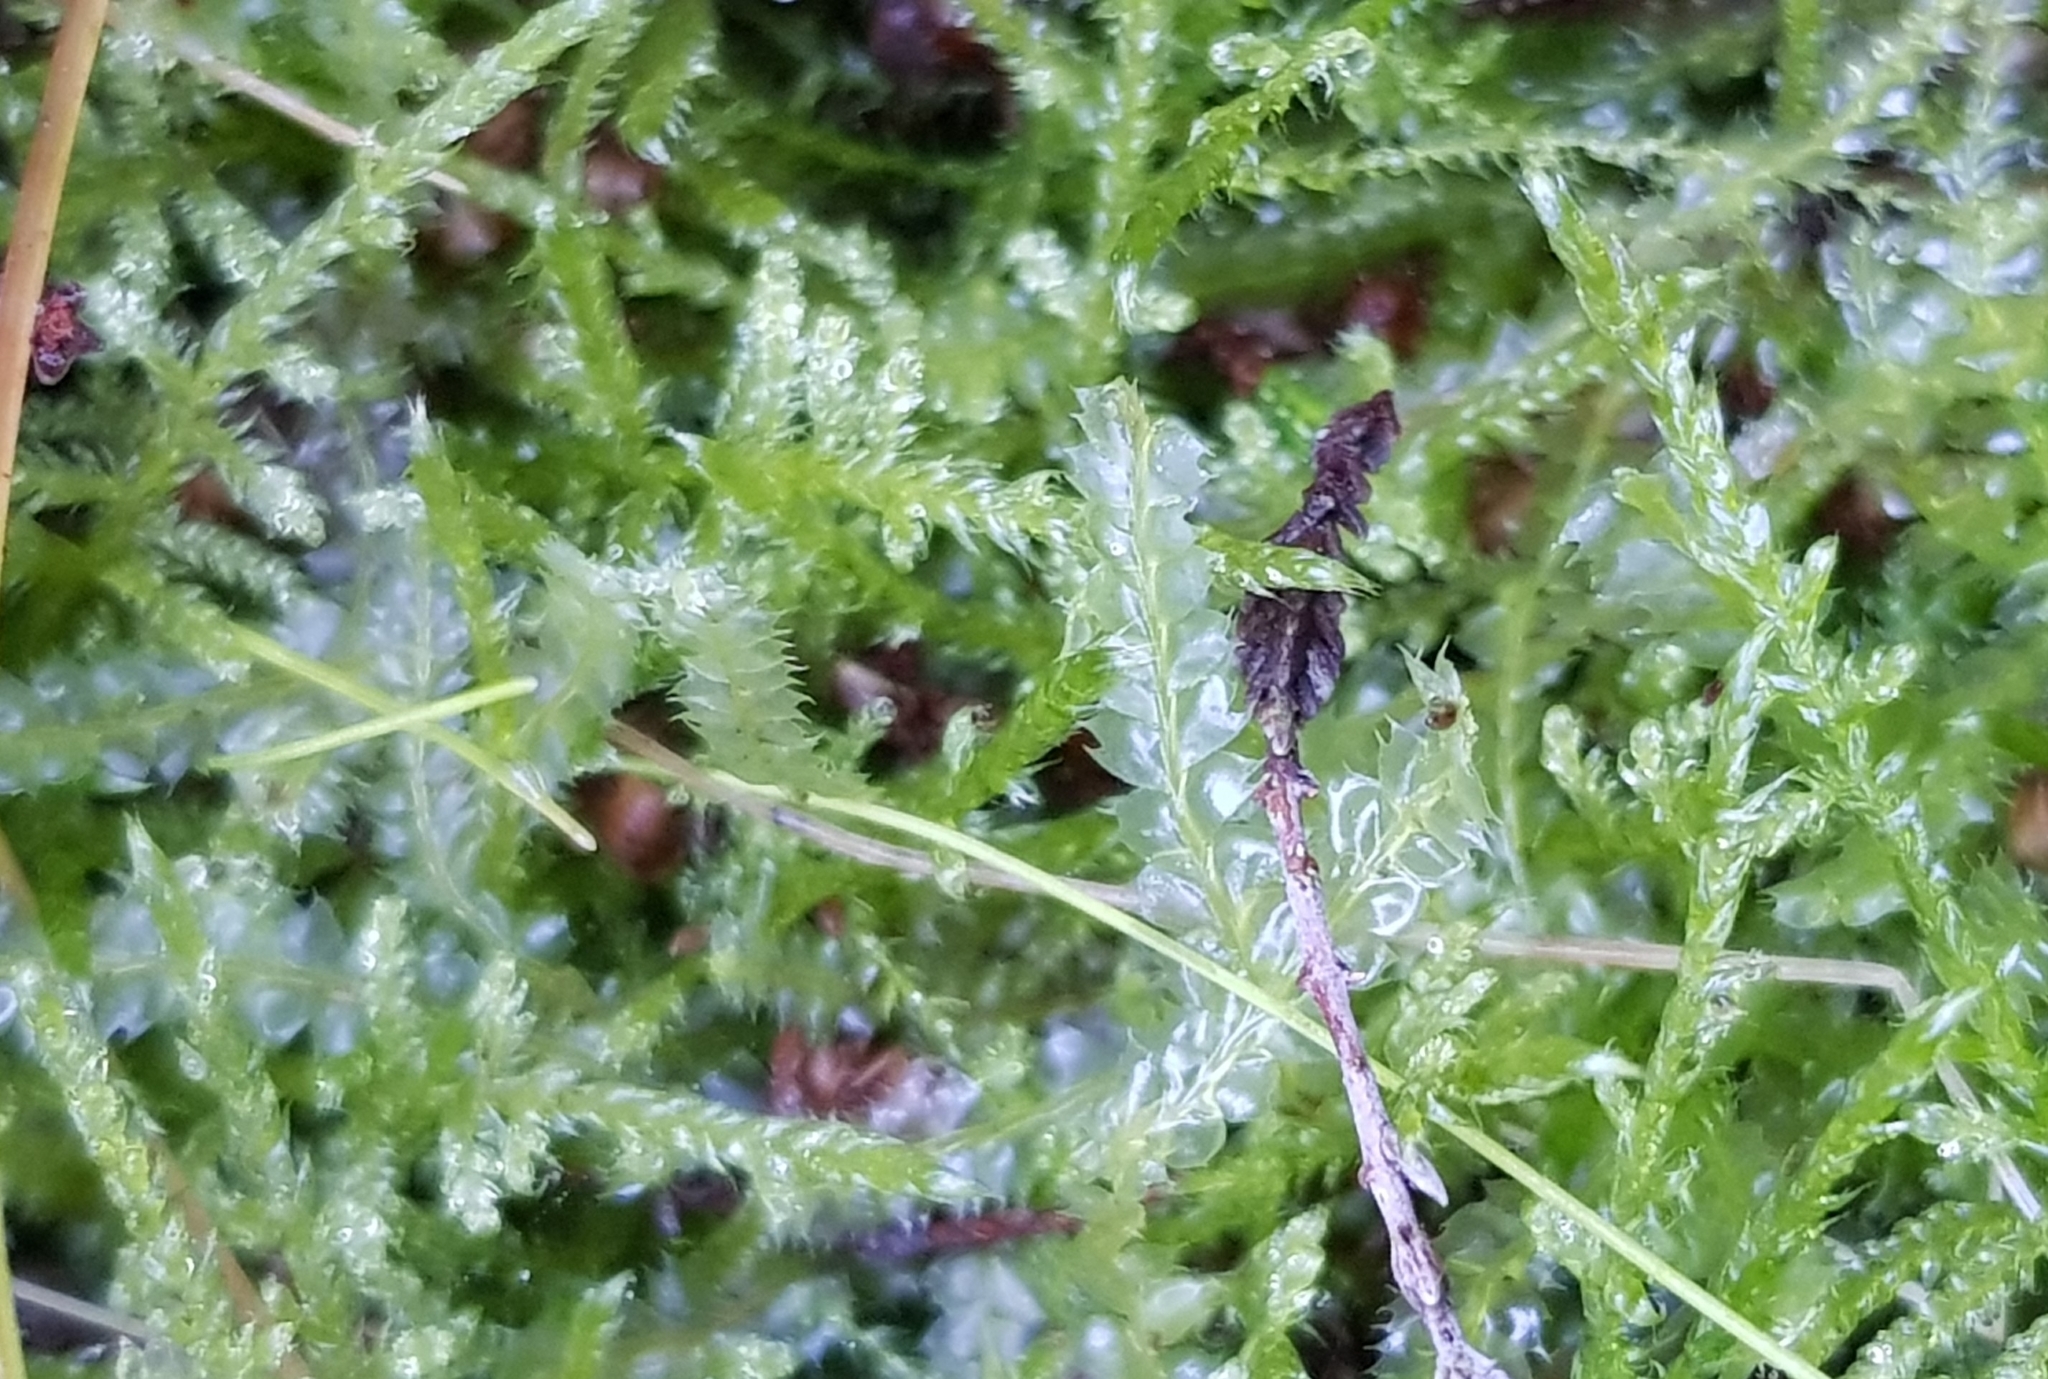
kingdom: Plantae
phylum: Marchantiophyta
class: Jungermanniopsida
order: Jungermanniales
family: Lophocoleaceae
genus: Lophocolea
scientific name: Lophocolea bidentata
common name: Bifid crestwort
